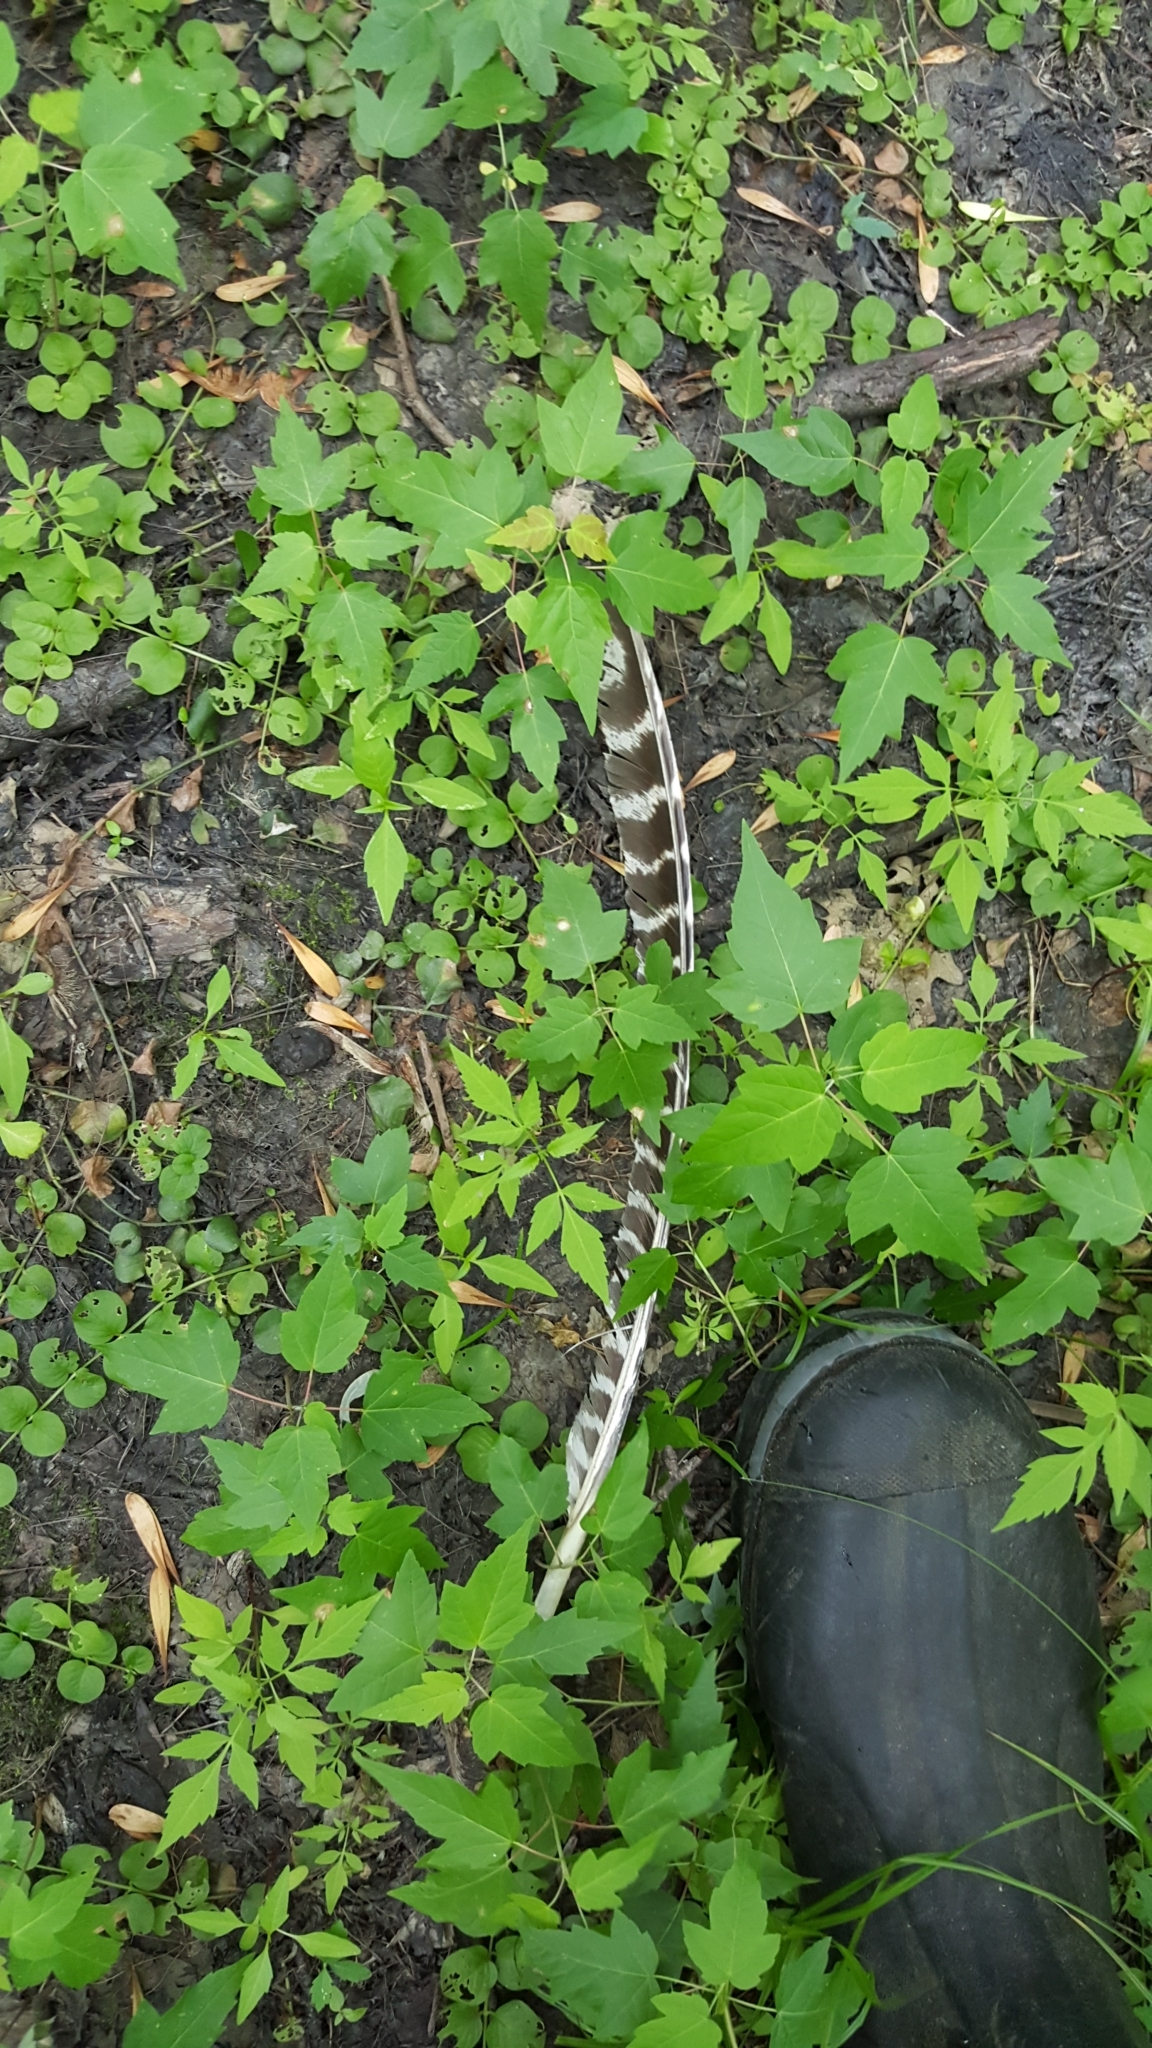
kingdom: Animalia
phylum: Chordata
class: Aves
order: Galliformes
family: Phasianidae
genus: Meleagris
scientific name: Meleagris gallopavo
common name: Wild turkey
